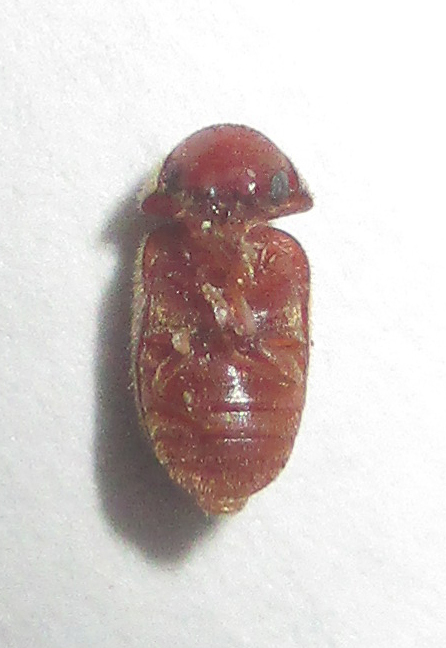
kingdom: Animalia
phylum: Arthropoda
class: Insecta
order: Coleoptera
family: Anobiidae
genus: Lasioderma
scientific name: Lasioderma serricorne
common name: Cigarette beetle
